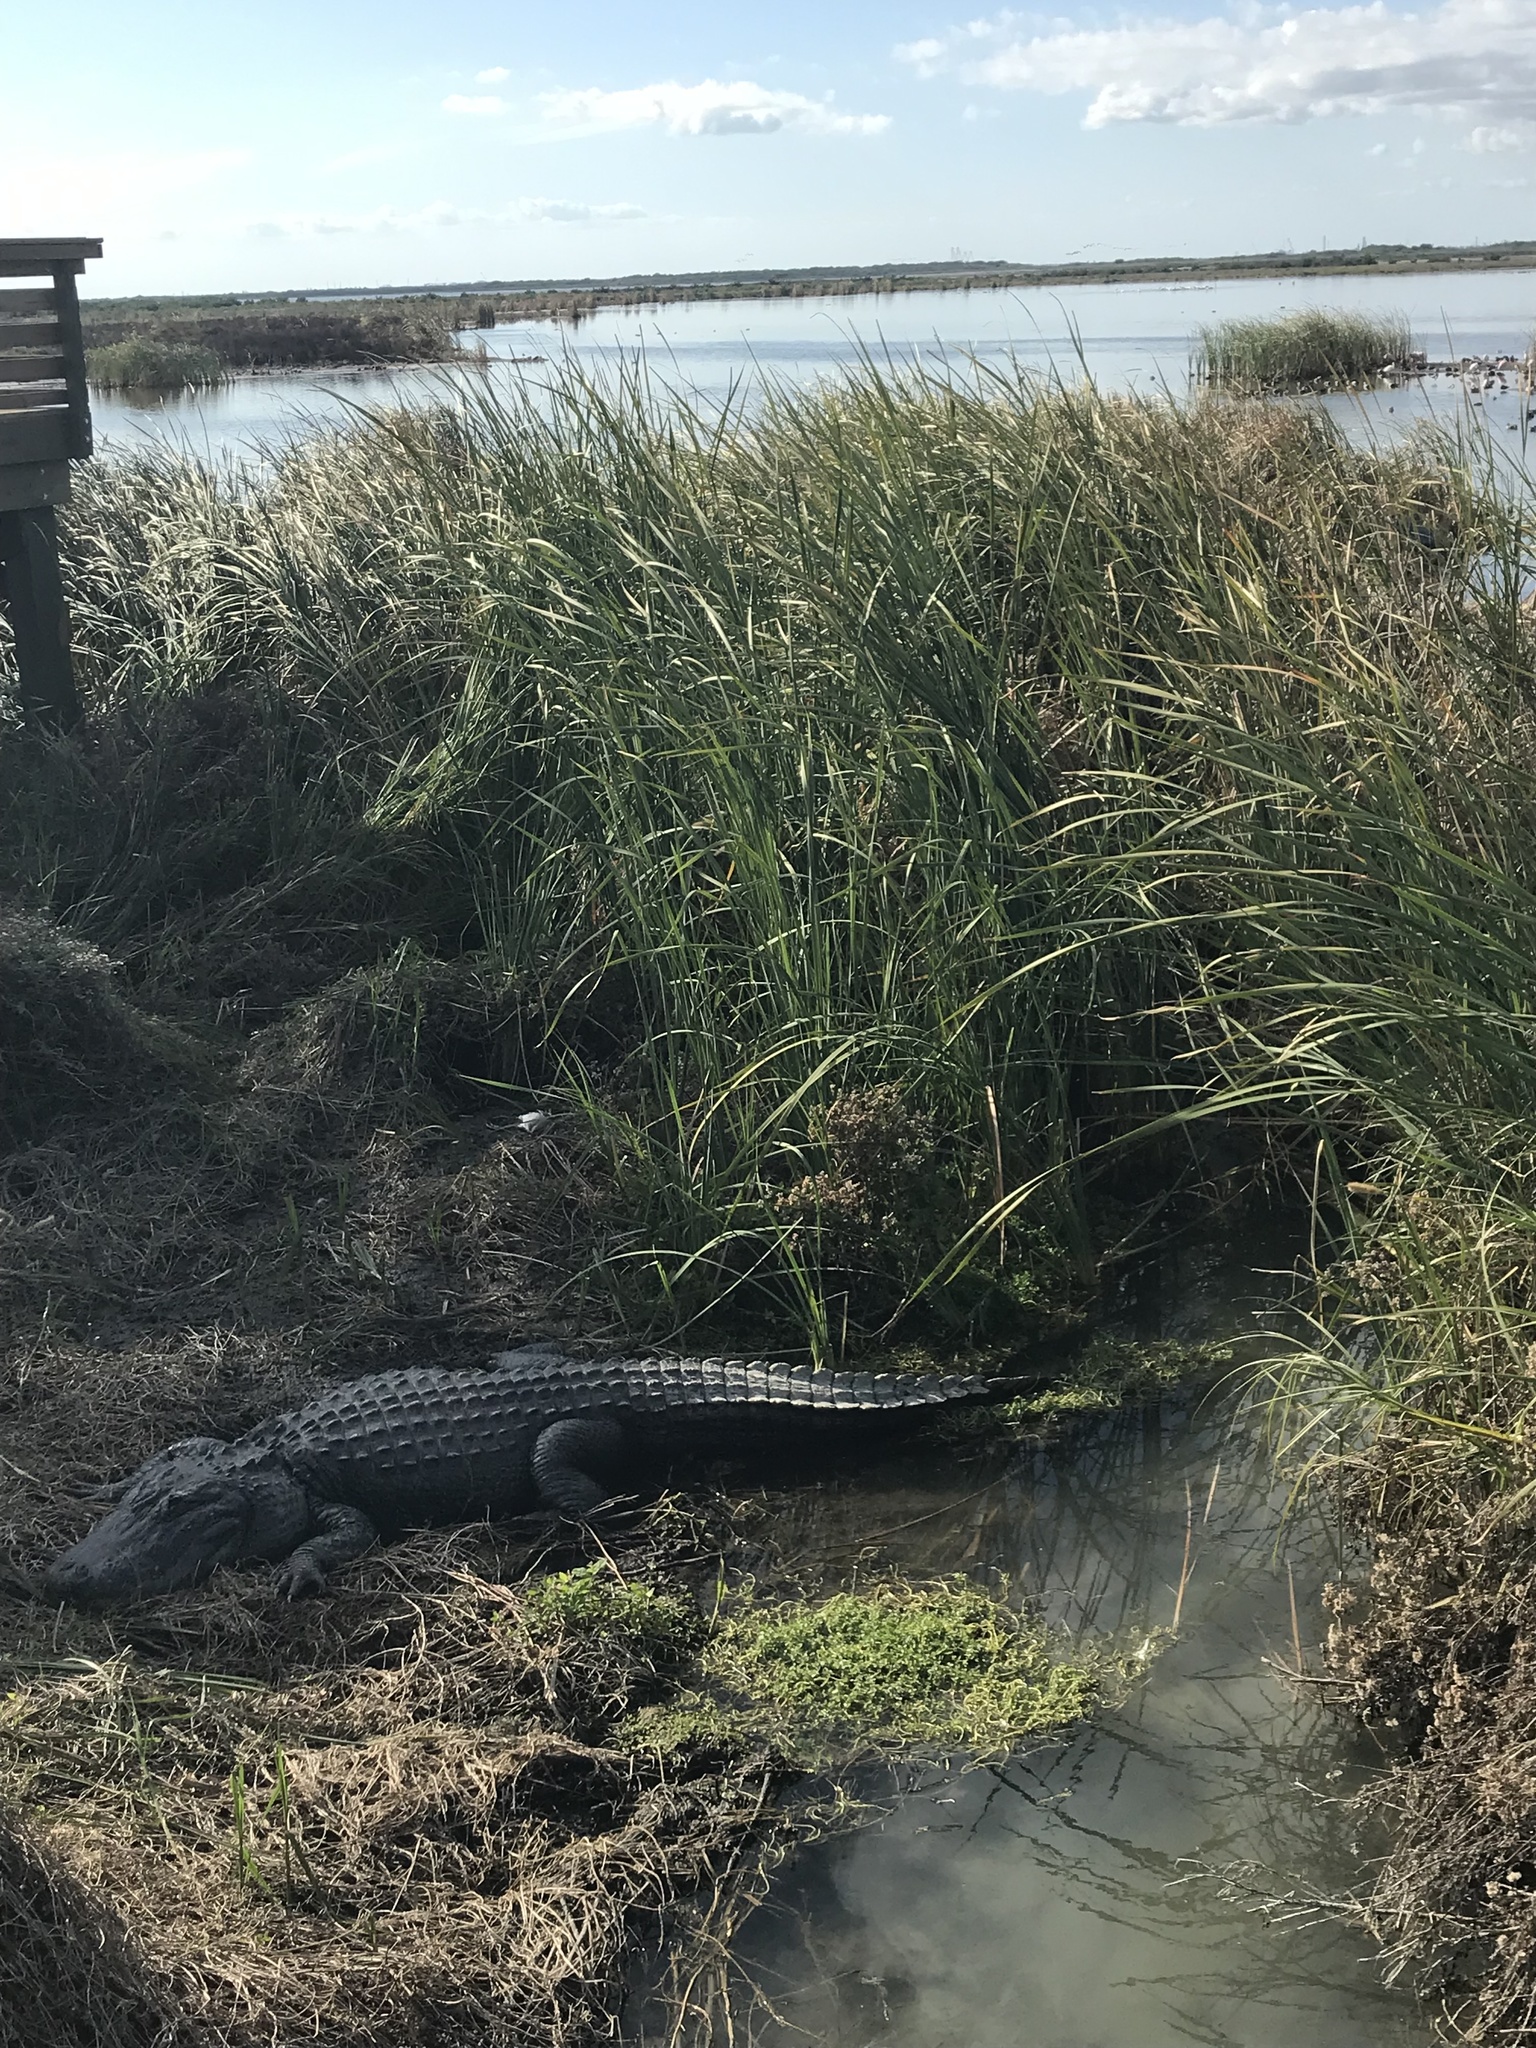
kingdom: Animalia
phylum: Chordata
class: Crocodylia
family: Alligatoridae
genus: Alligator
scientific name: Alligator mississippiensis
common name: American alligator
